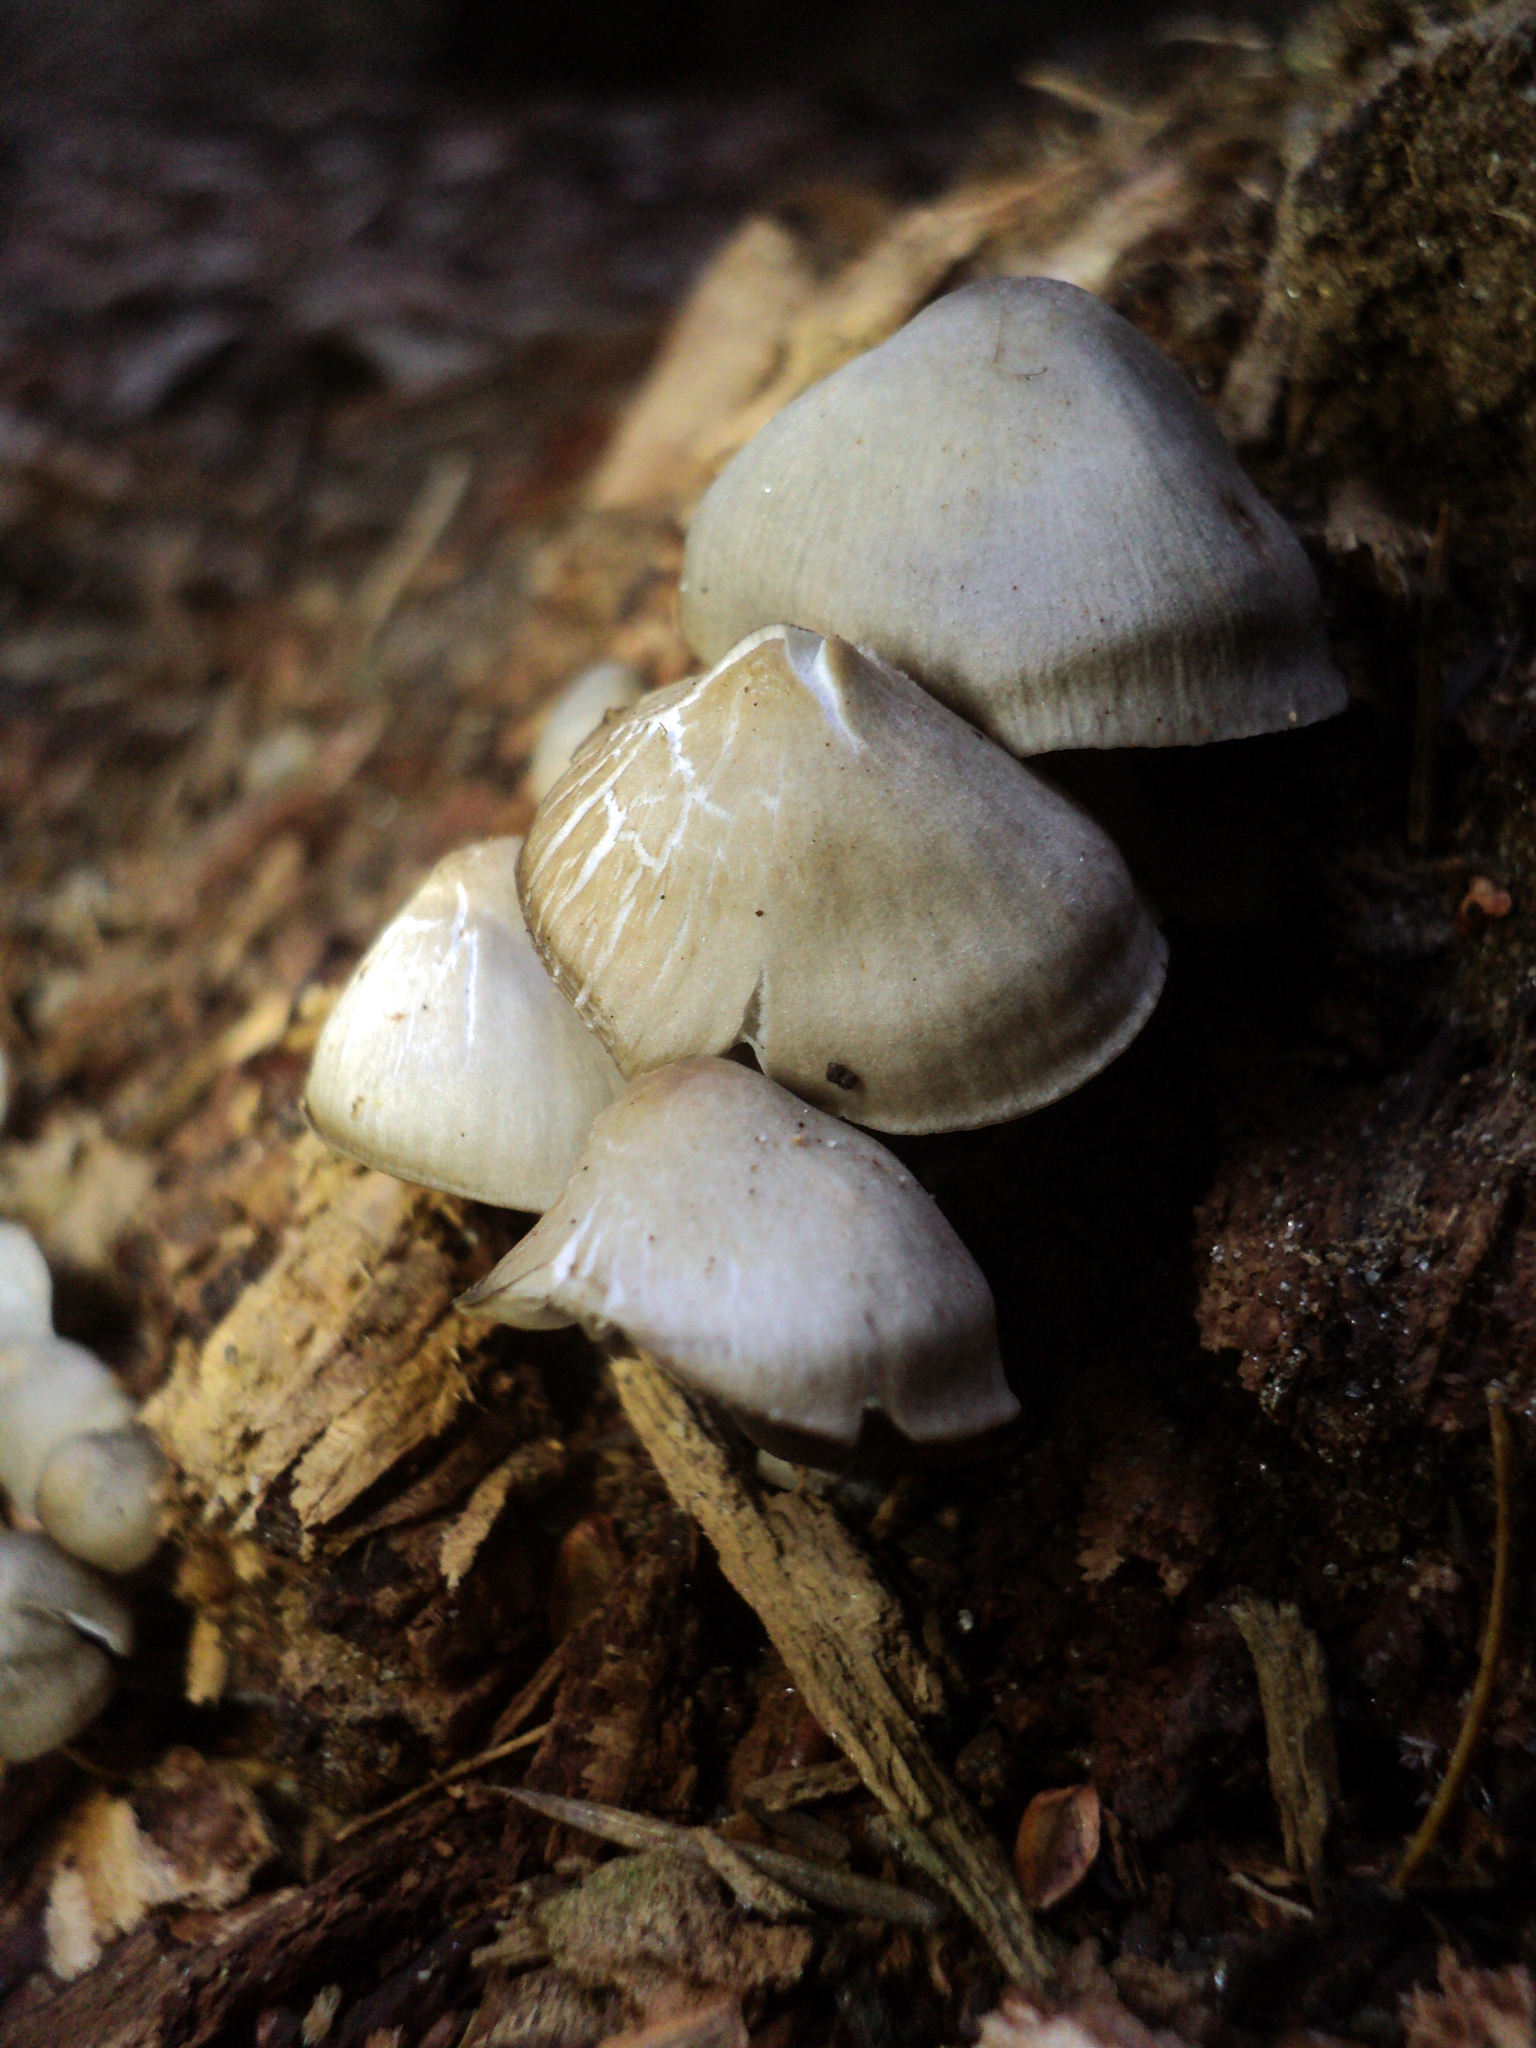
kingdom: Fungi
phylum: Basidiomycota
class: Agaricomycetes
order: Agaricales
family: Mycenaceae
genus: Mycena
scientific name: Mycena maculata
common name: Stained bonnet
